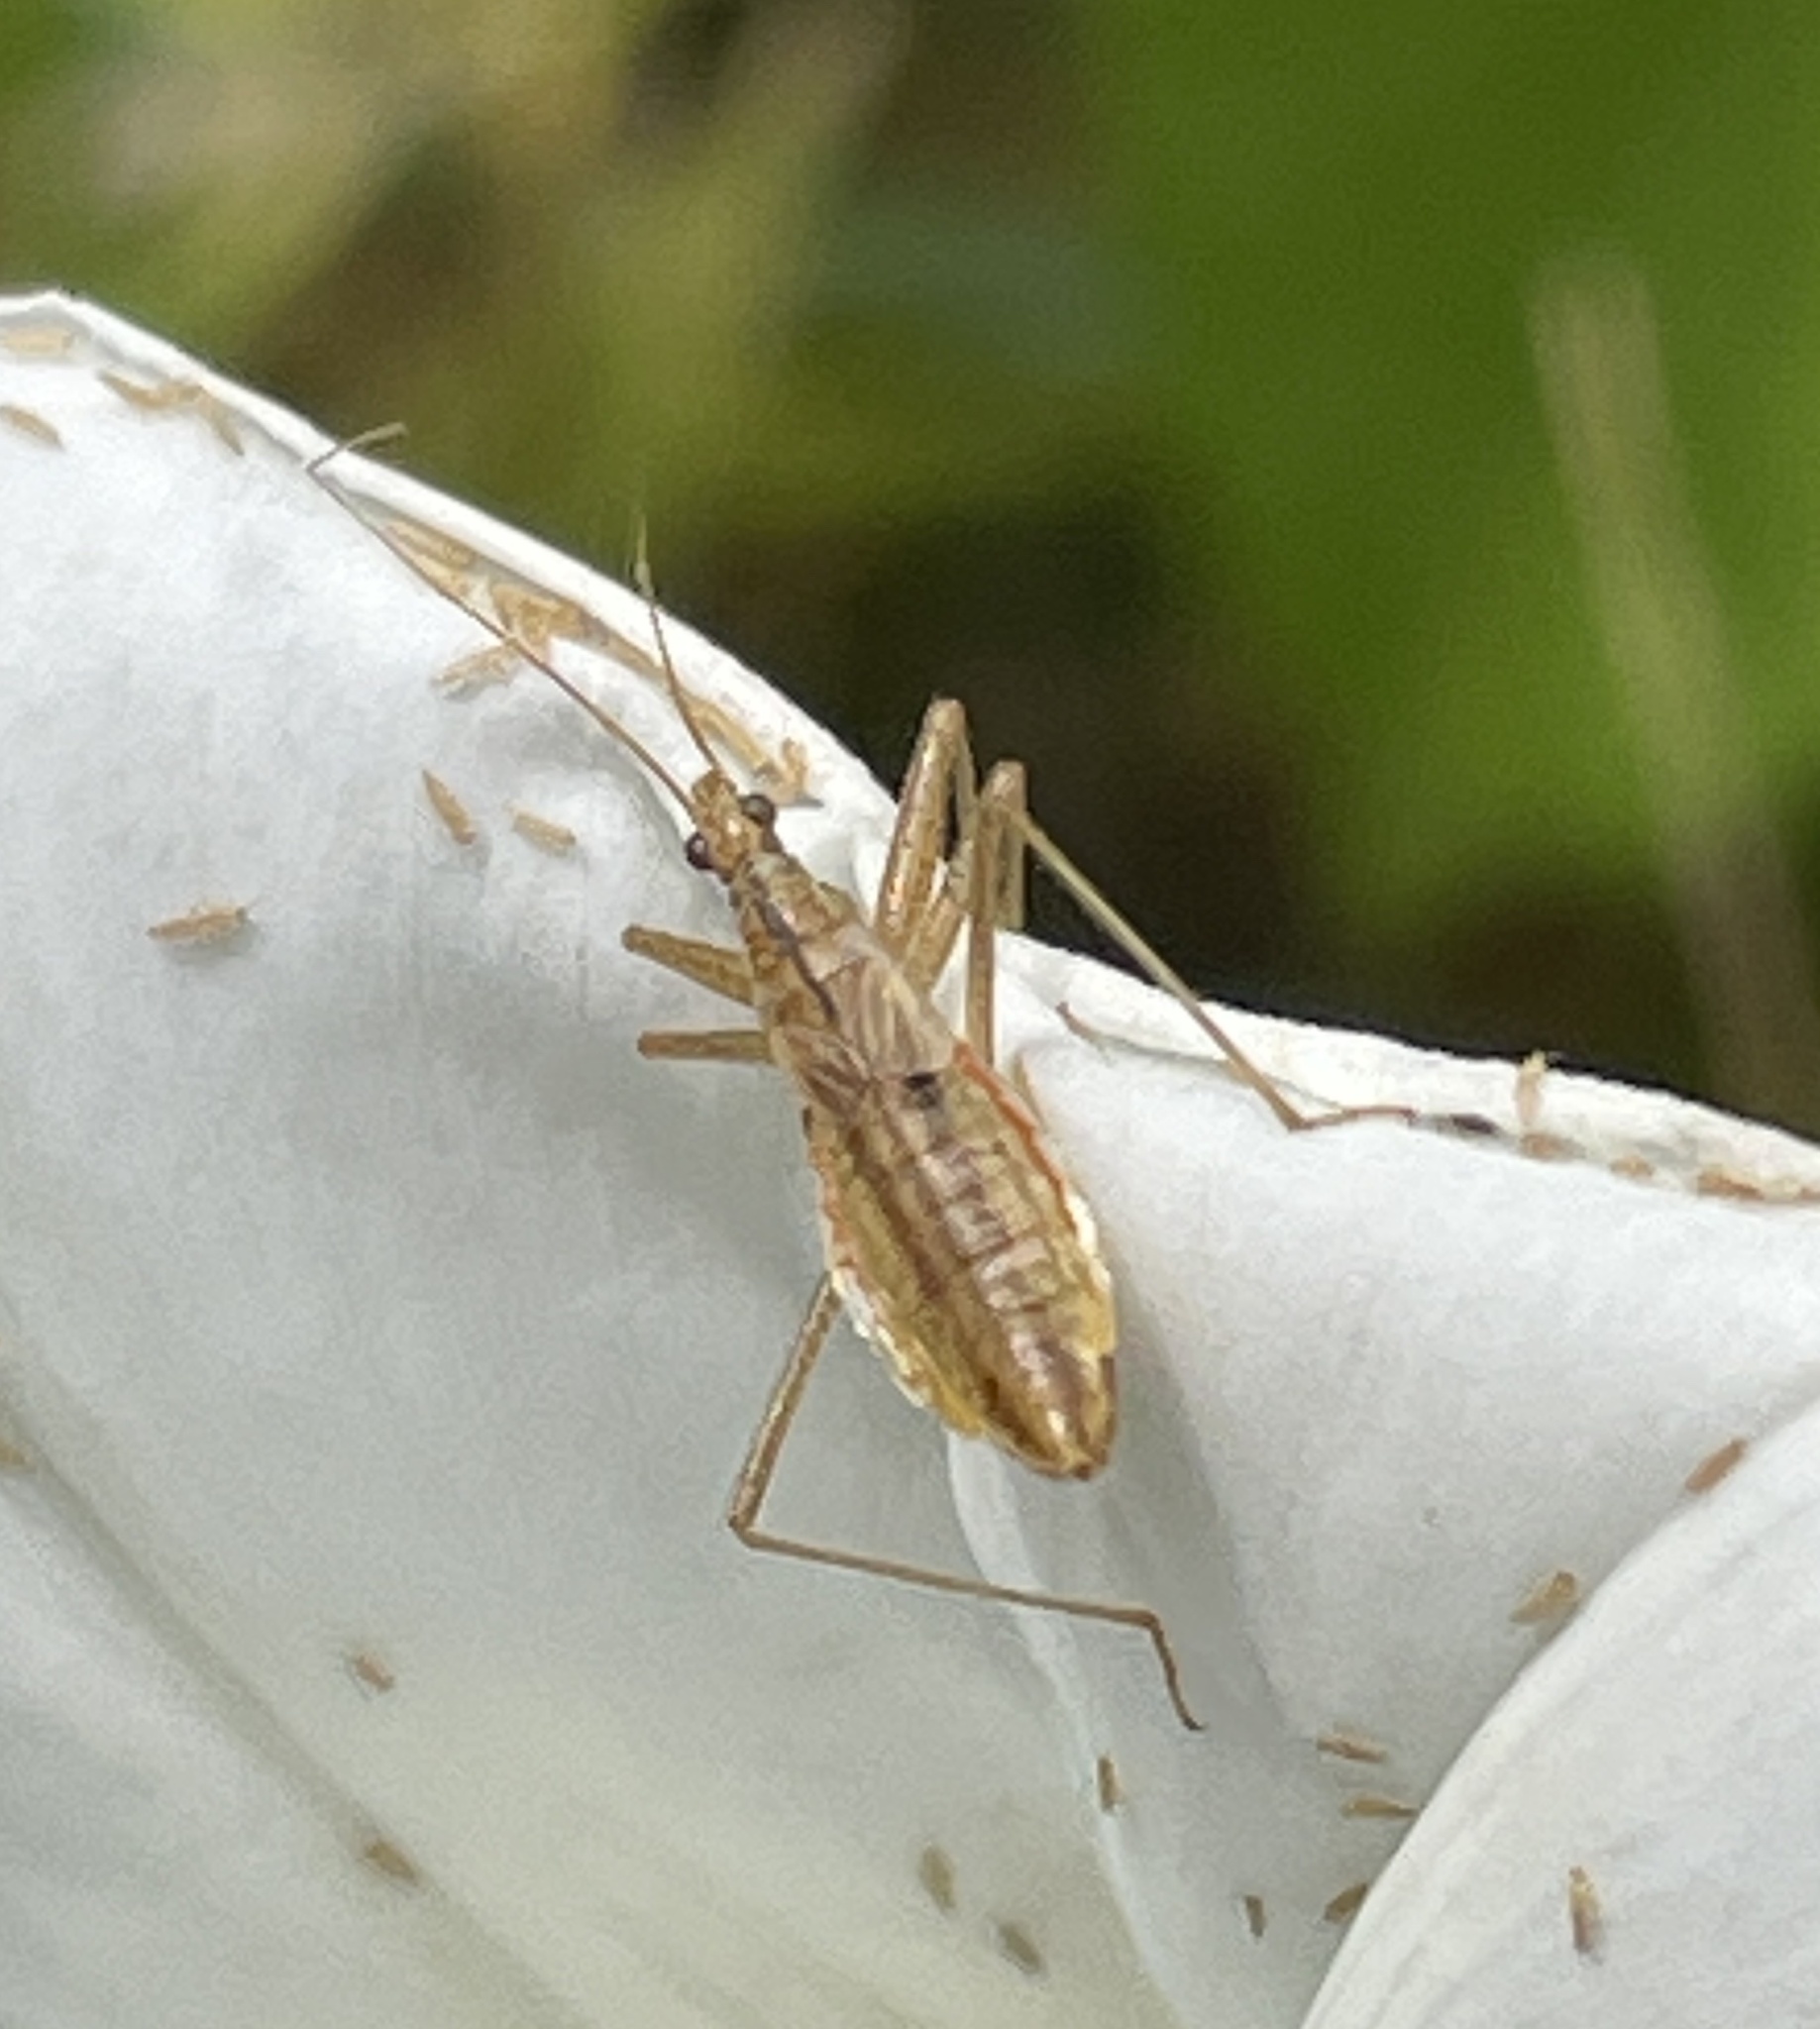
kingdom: Animalia
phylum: Arthropoda
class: Insecta
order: Hemiptera
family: Nabidae
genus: Nabis
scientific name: Nabis limbatus
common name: Marsh damselbug
